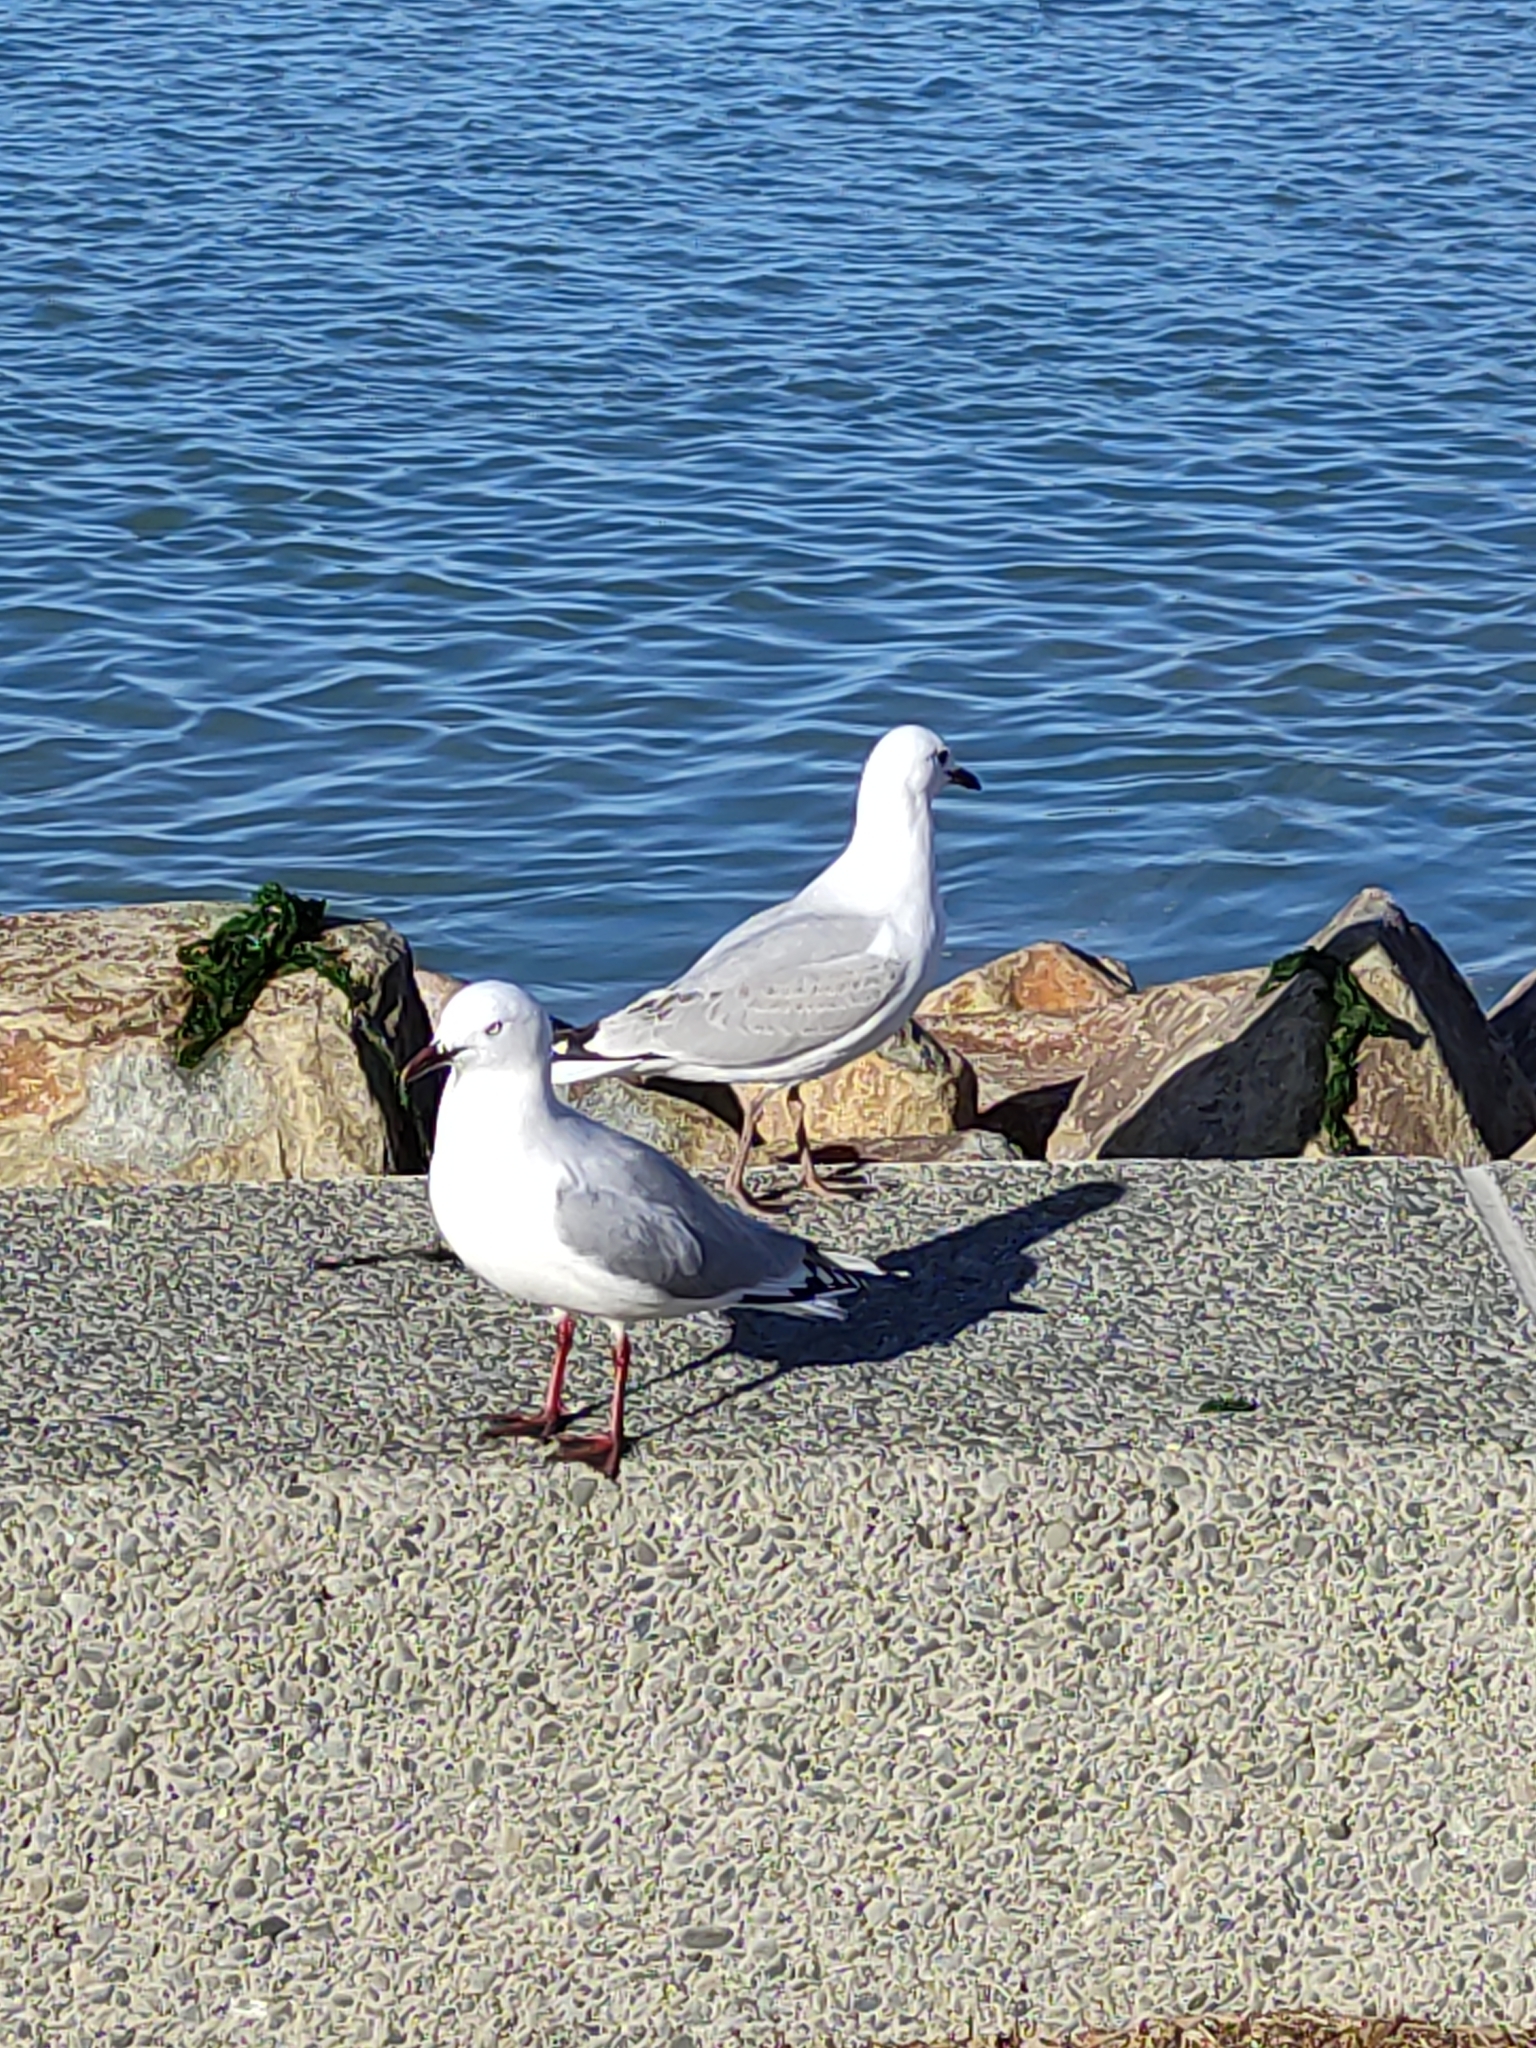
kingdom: Animalia
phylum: Chordata
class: Aves
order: Charadriiformes
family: Laridae
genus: Chroicocephalus
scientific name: Chroicocephalus novaehollandiae
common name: Silver gull
